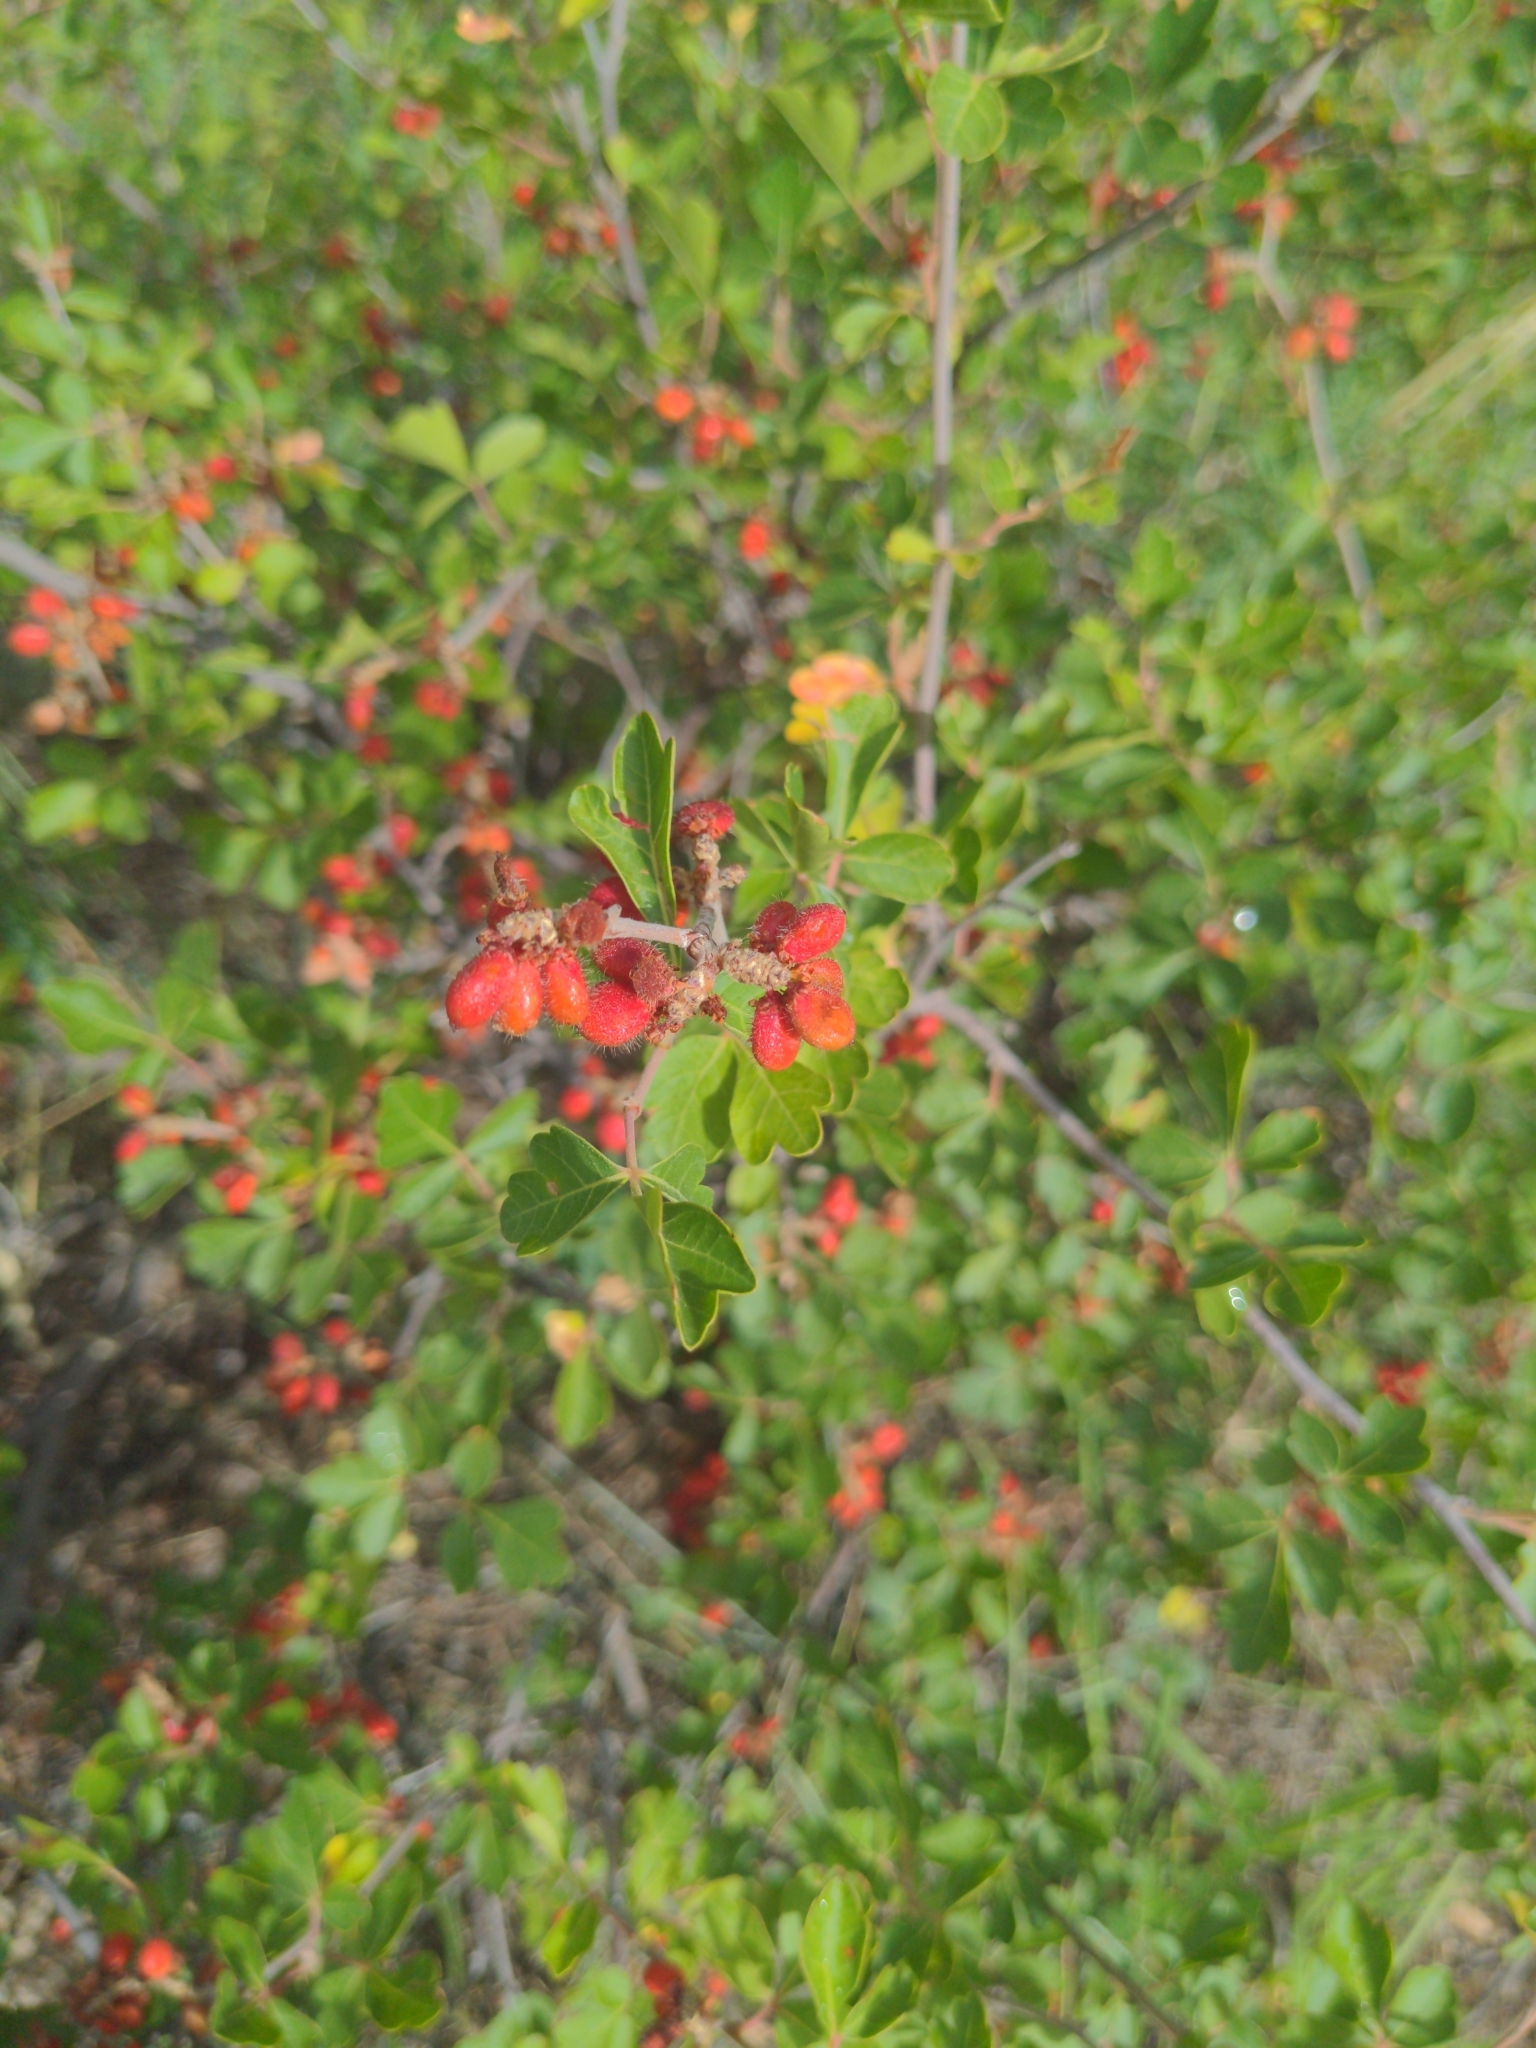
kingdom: Plantae
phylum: Tracheophyta
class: Magnoliopsida
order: Sapindales
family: Anacardiaceae
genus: Rhus
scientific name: Rhus trilobata
